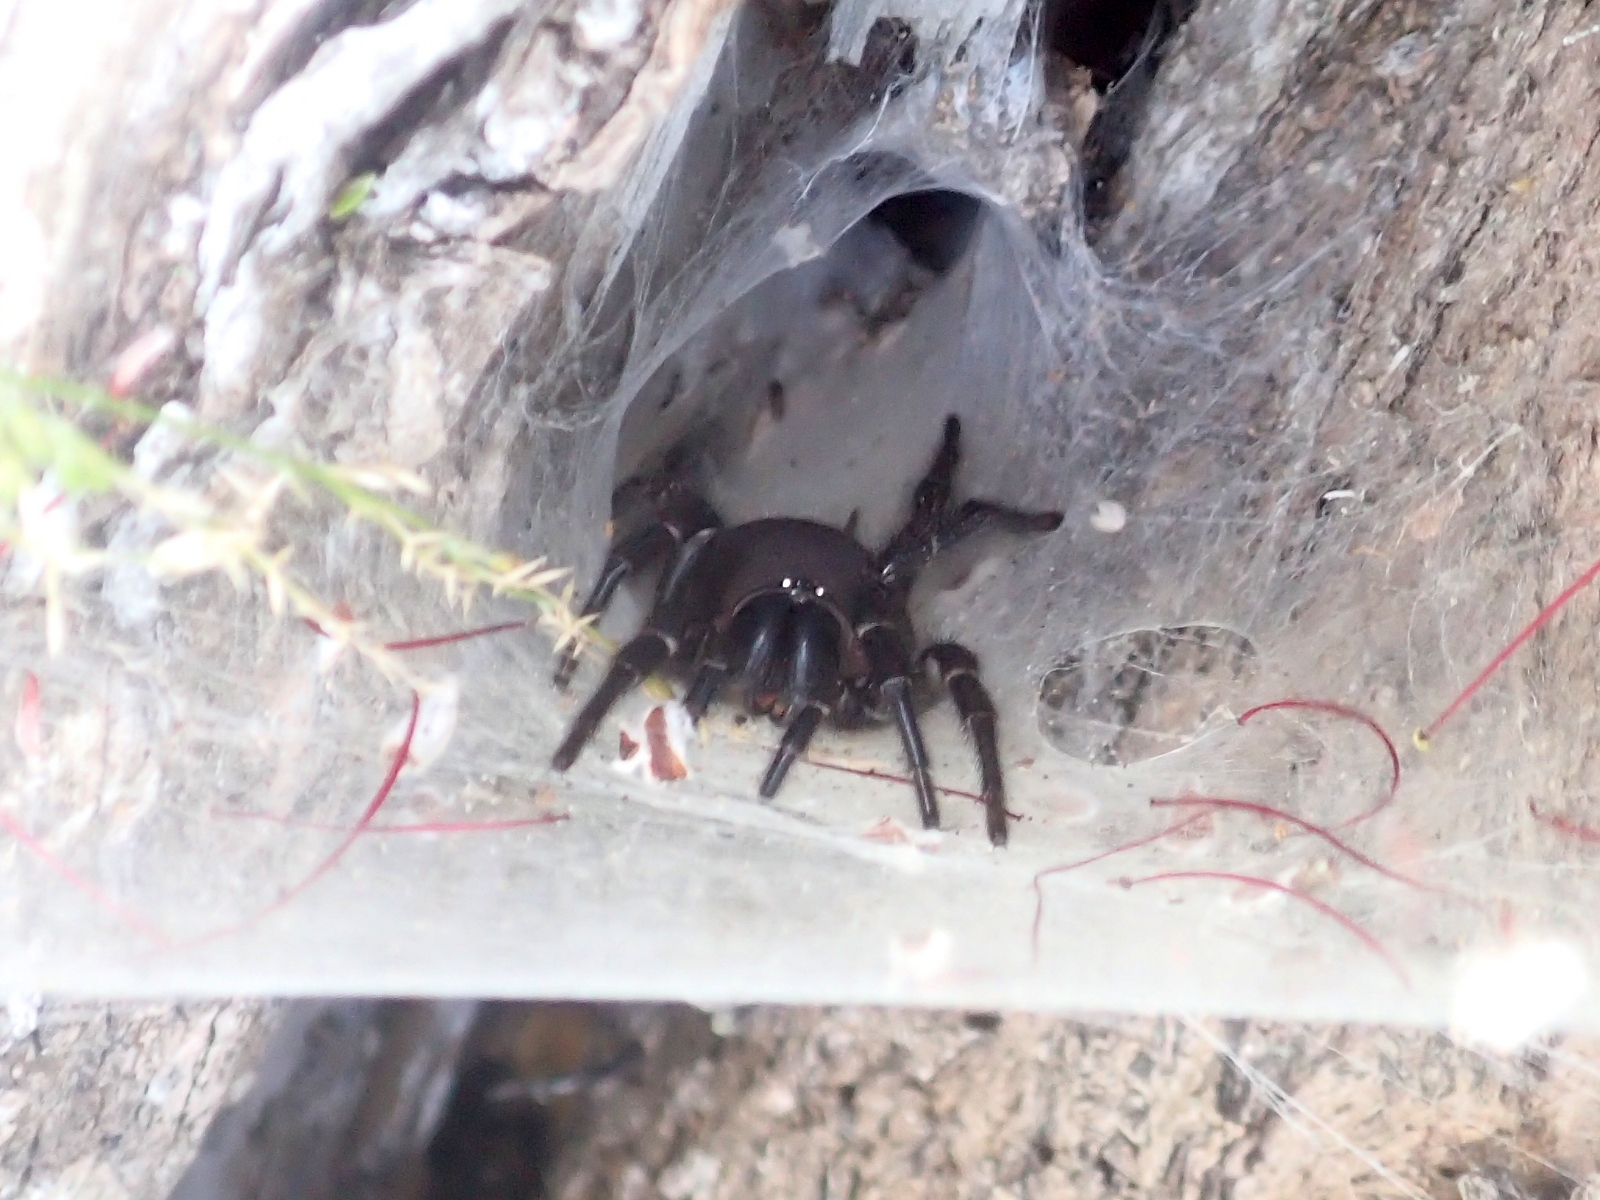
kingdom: Animalia
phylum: Arthropoda
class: Arachnida
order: Araneae
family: Porrhothelidae
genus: Porrhothele
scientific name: Porrhothele antipodiana
